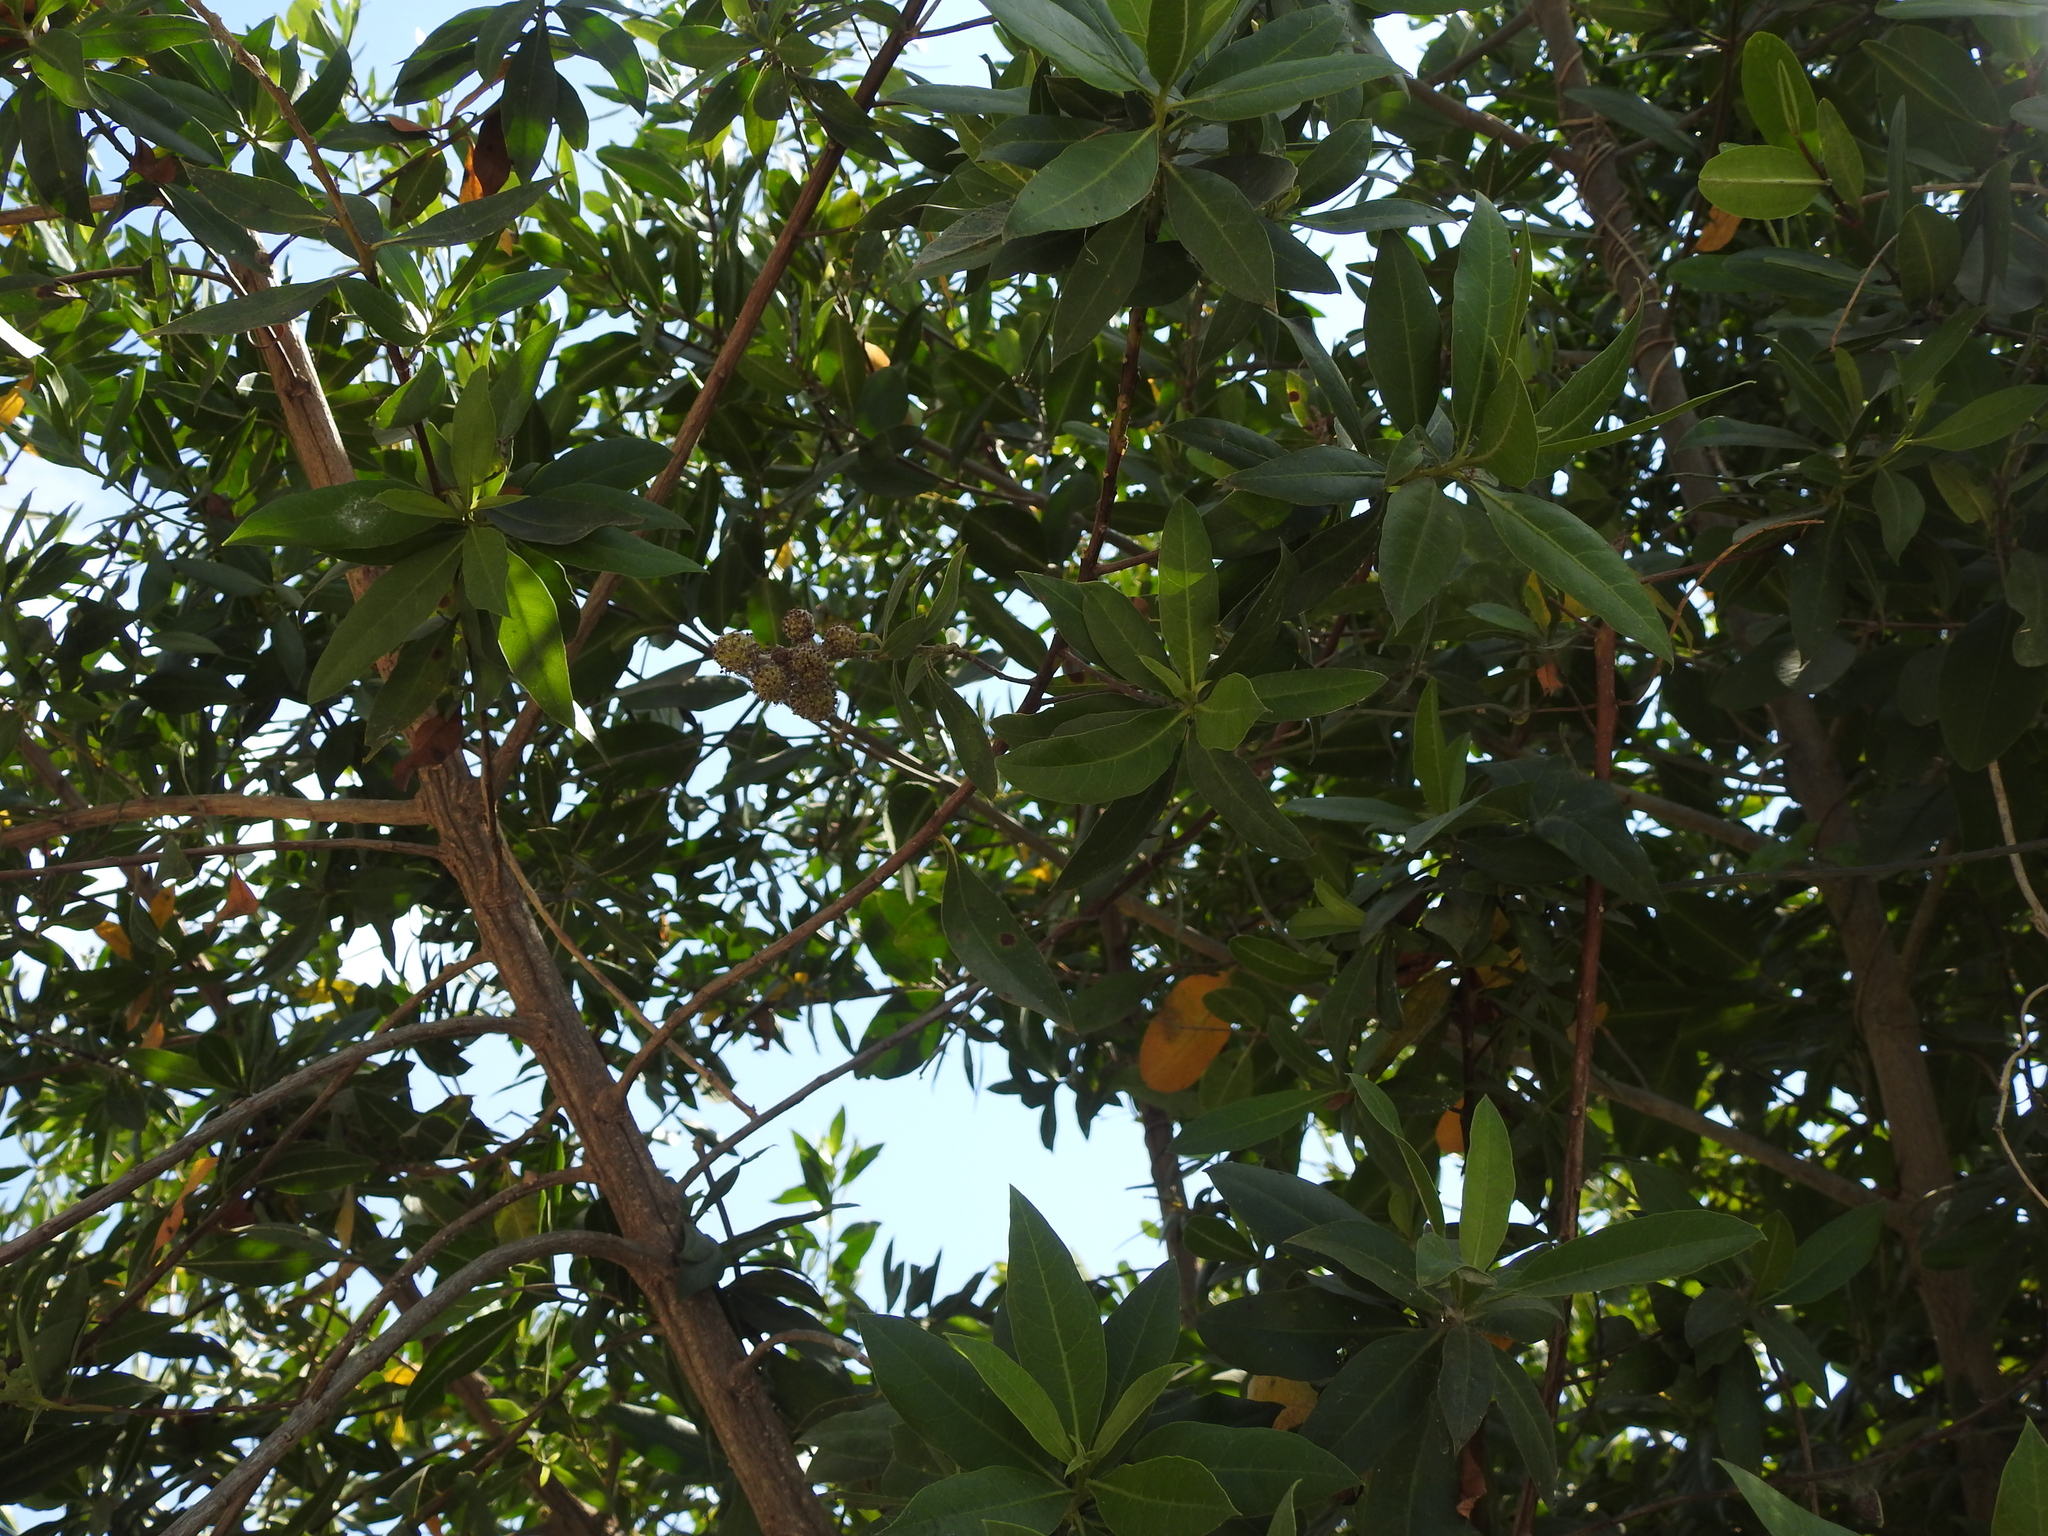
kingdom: Plantae
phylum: Tracheophyta
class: Magnoliopsida
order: Myrtales
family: Combretaceae
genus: Conocarpus
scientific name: Conocarpus erectus
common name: Button mangrove
